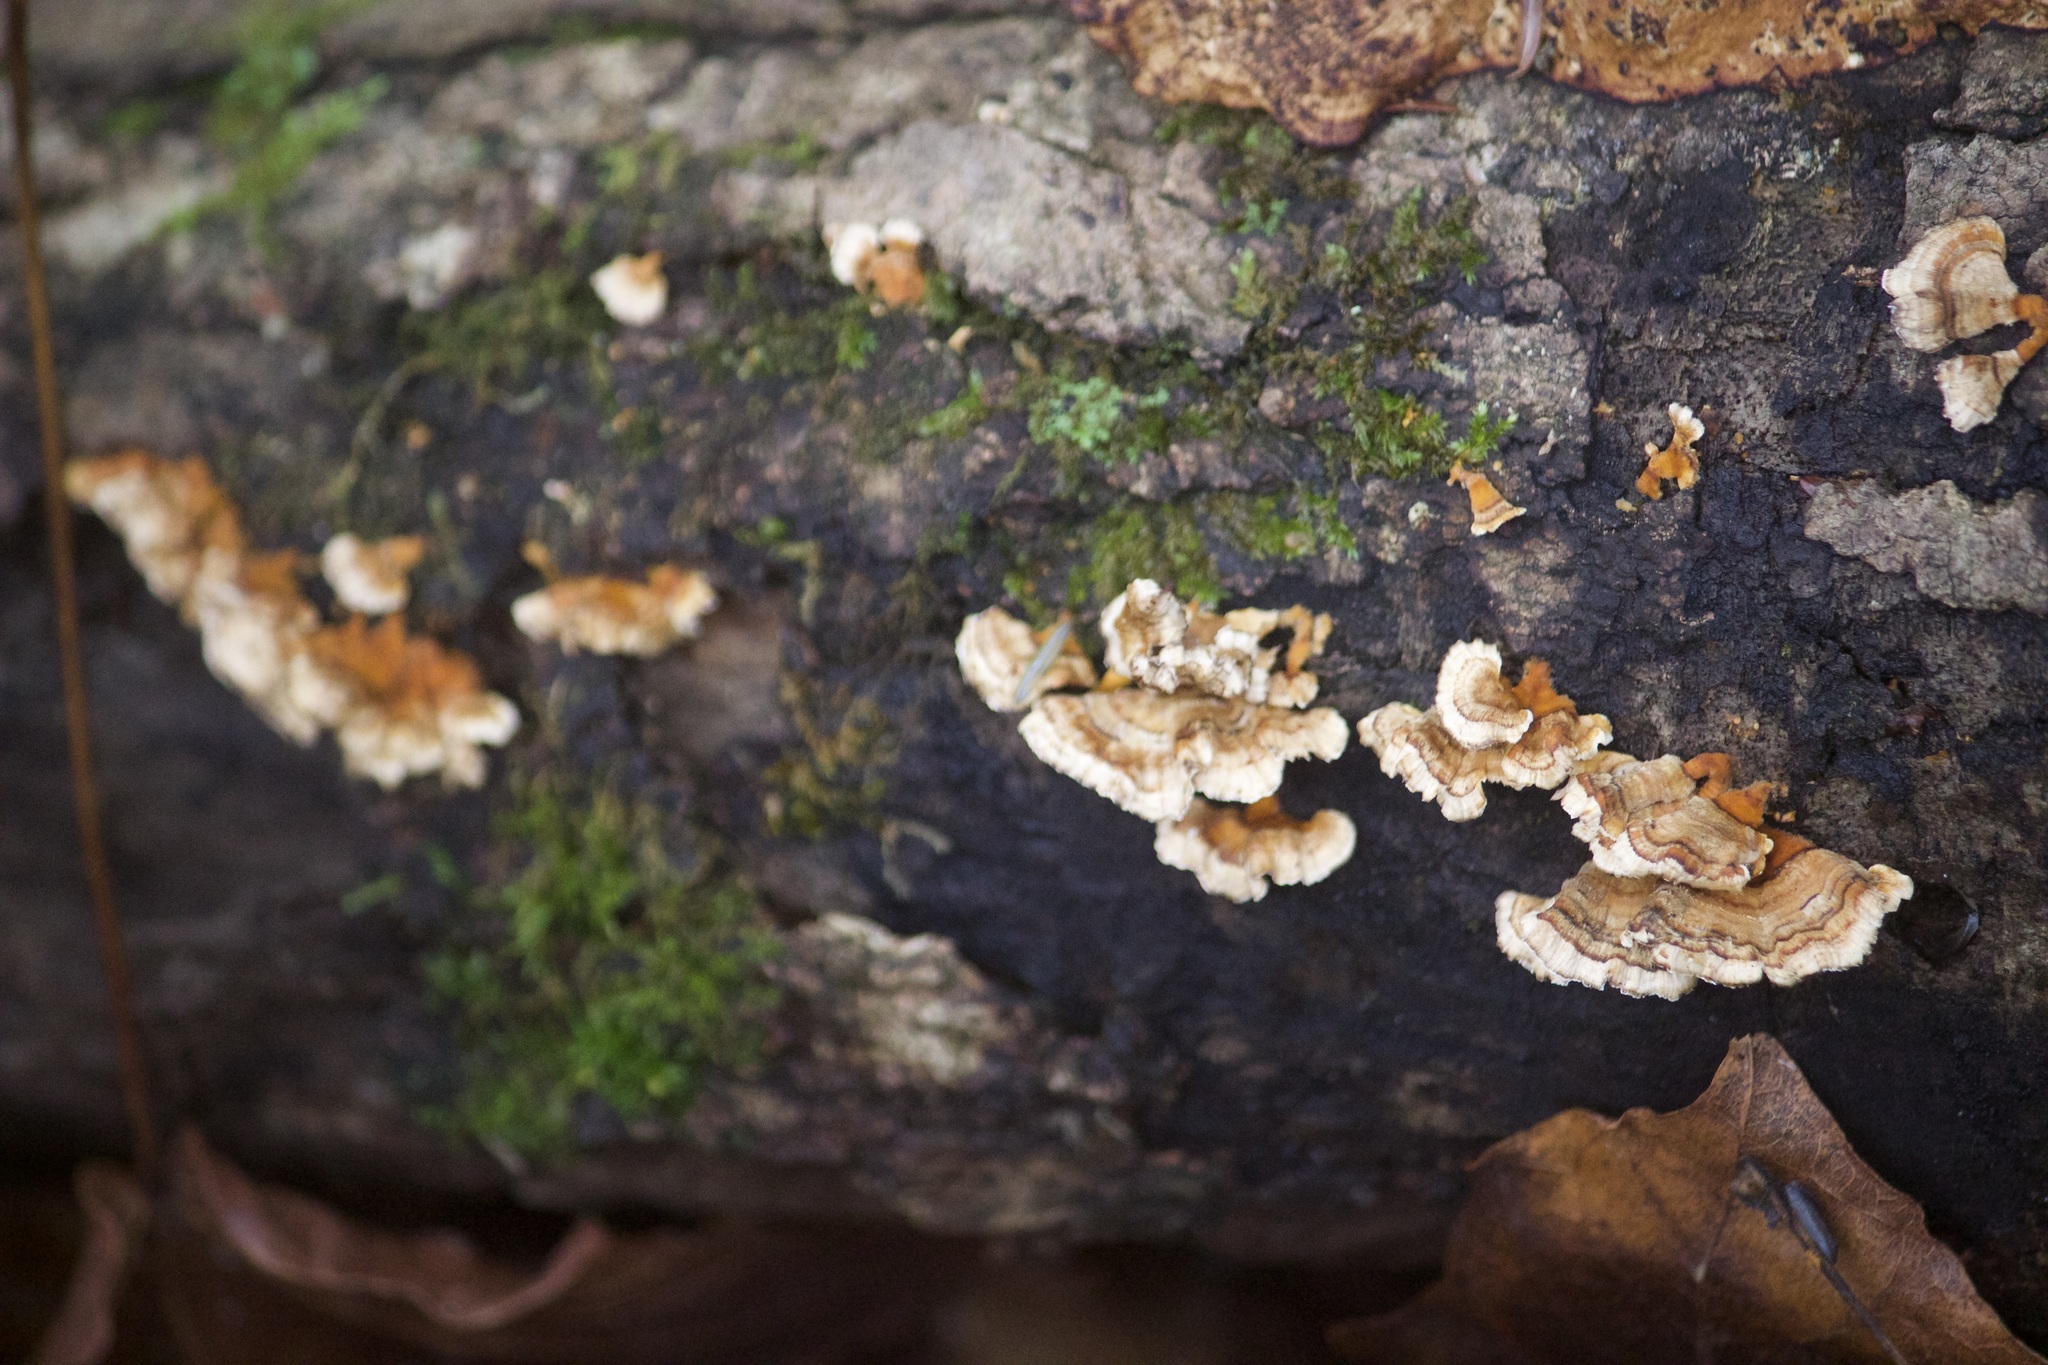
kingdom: Fungi
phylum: Basidiomycota
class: Agaricomycetes
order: Russulales
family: Stereaceae
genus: Stereum
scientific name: Stereum complicatum
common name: Crowded parchment
